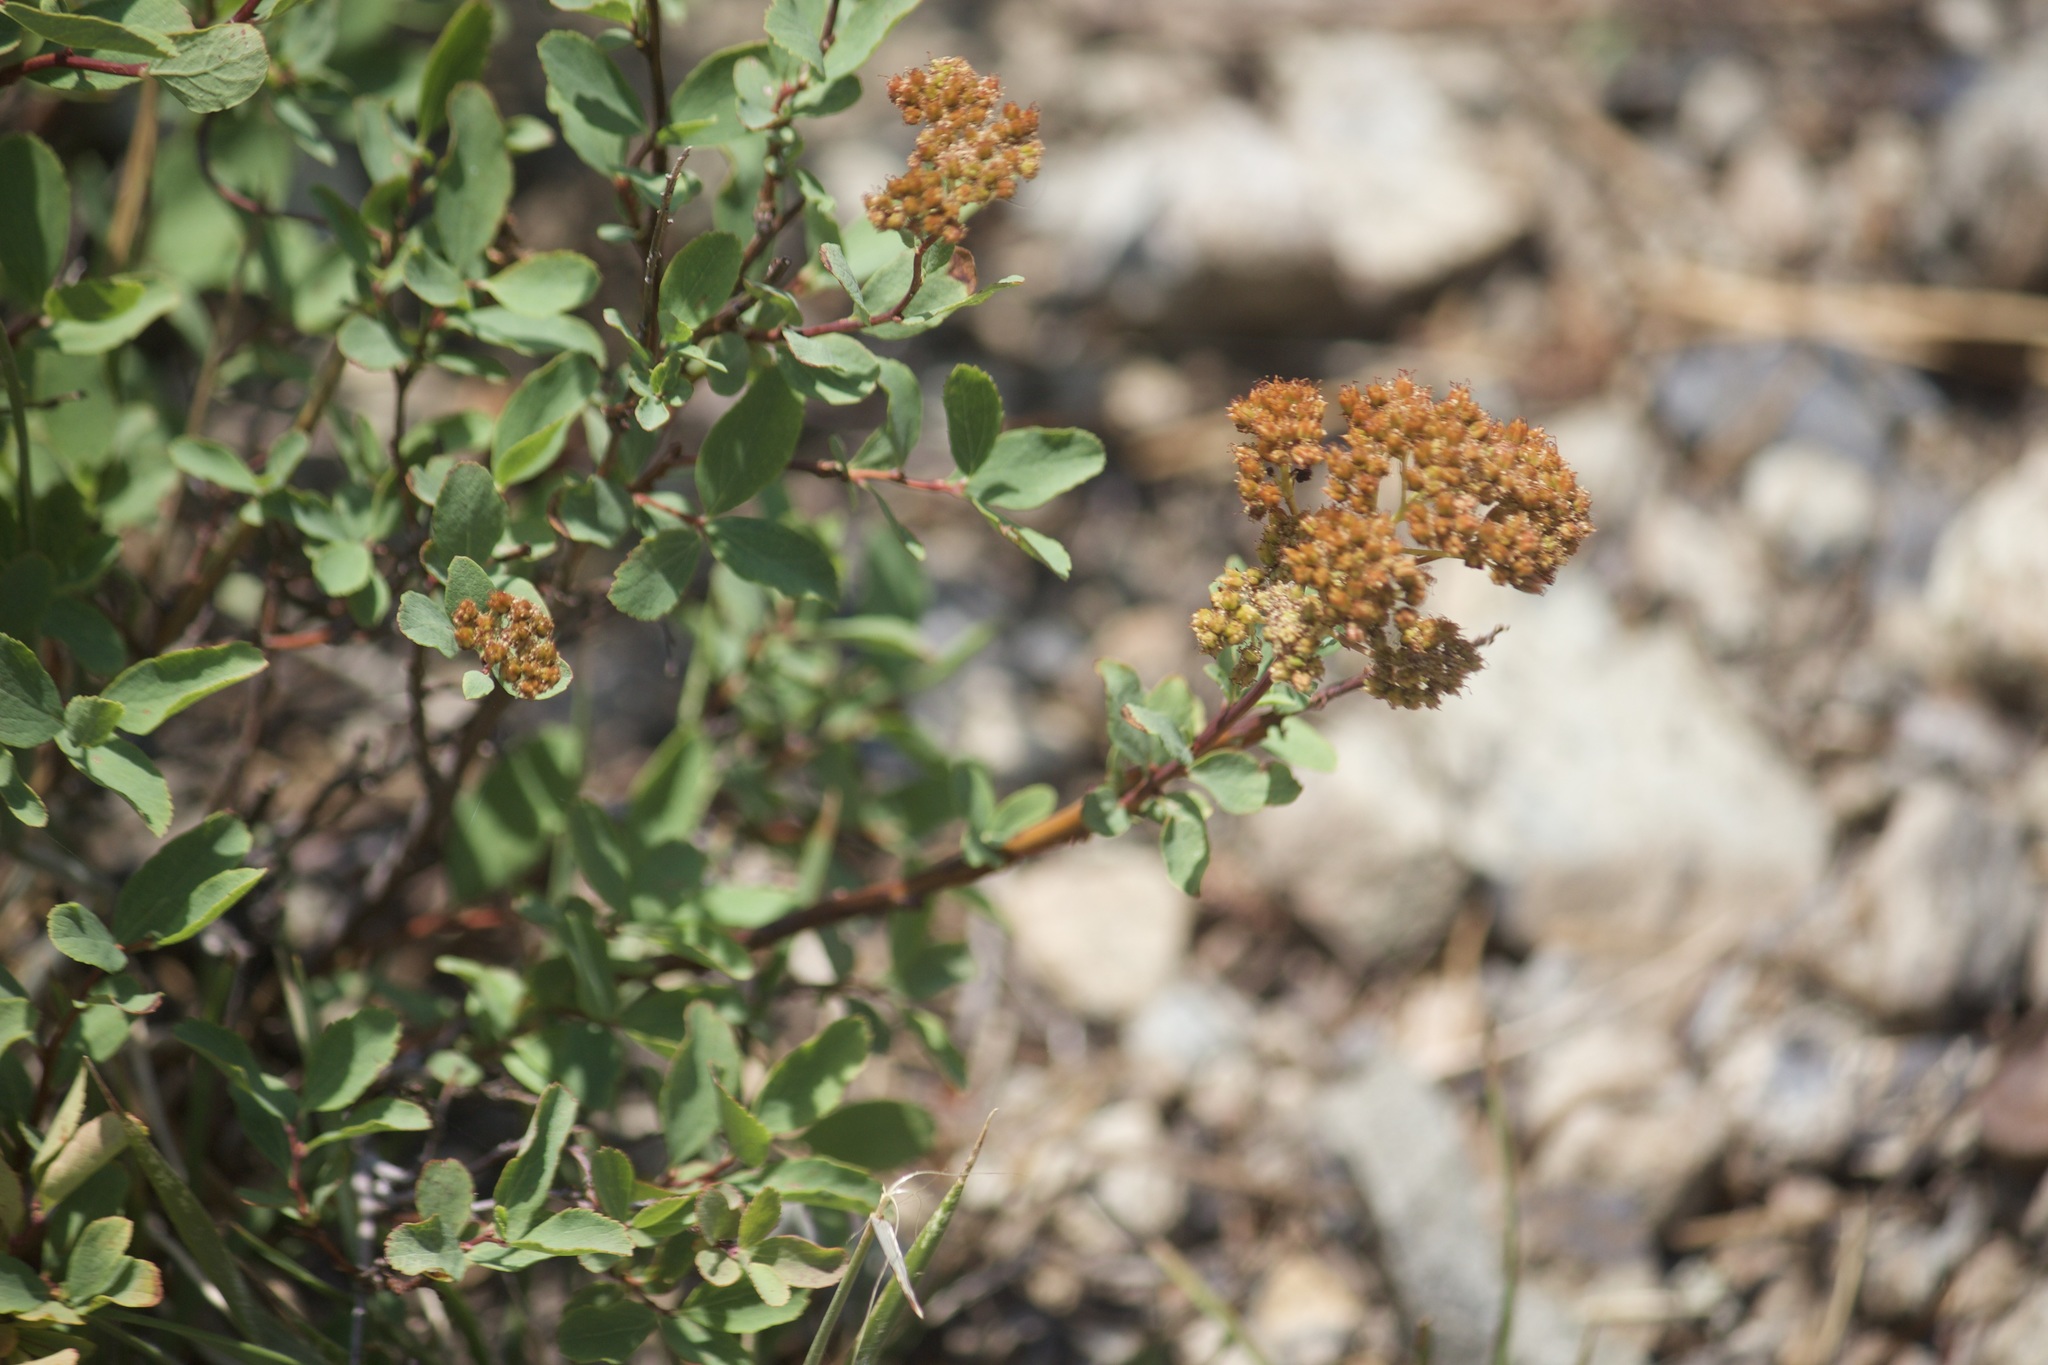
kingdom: Plantae
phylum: Tracheophyta
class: Magnoliopsida
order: Rosales
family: Rosaceae
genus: Spiraea
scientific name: Spiraea splendens
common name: Subalpine meadowsweet
